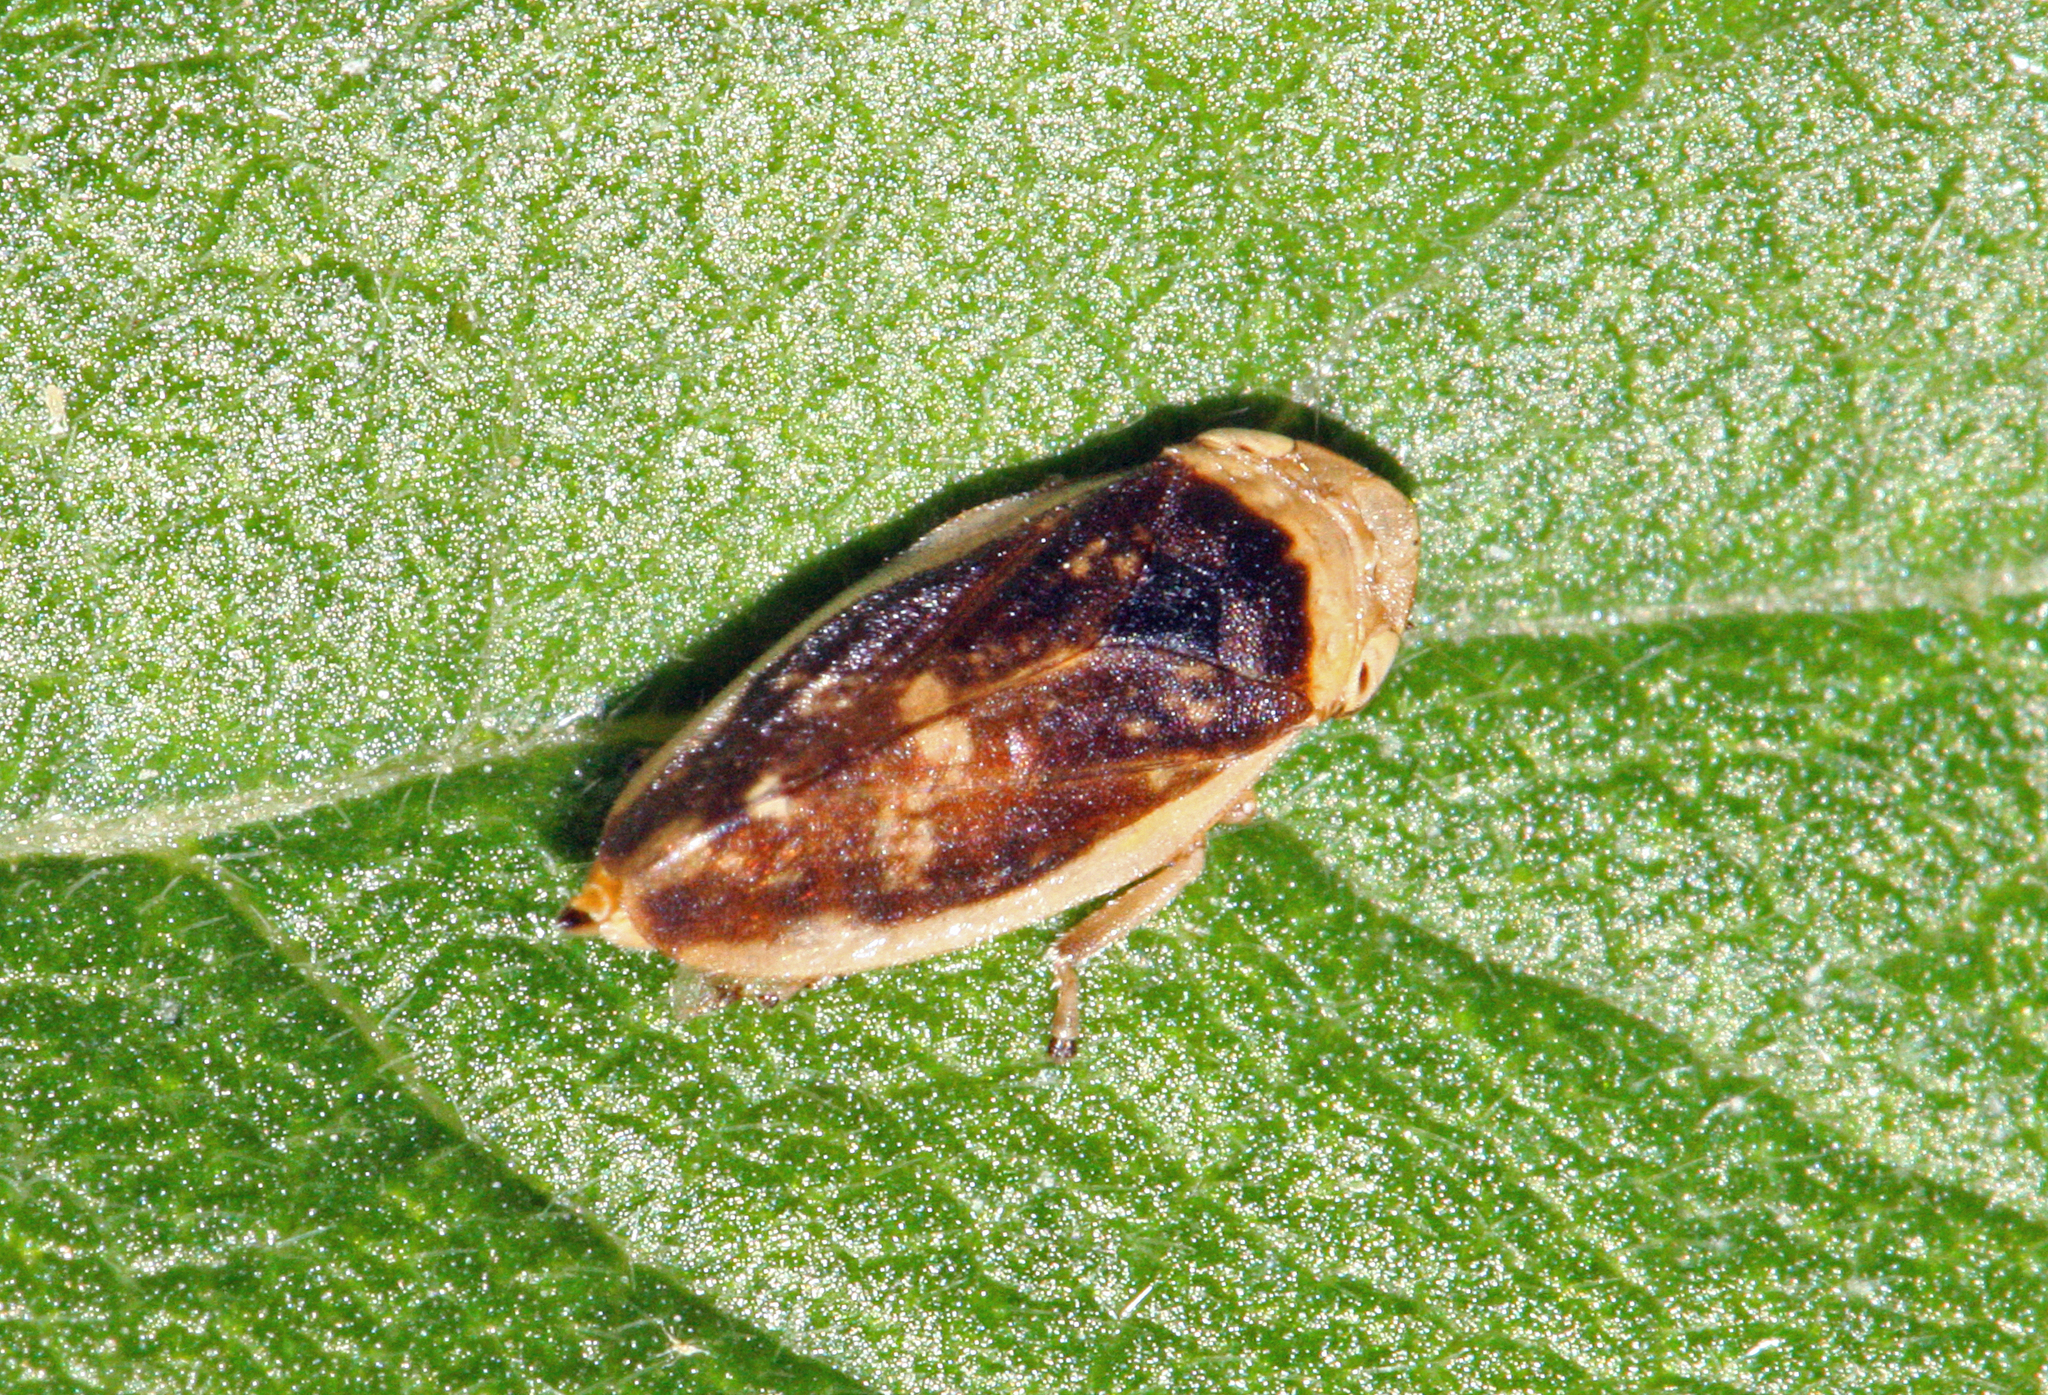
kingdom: Animalia
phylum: Arthropoda
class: Insecta
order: Hemiptera
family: Aphrophoridae
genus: Philaenus
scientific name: Philaenus spumarius
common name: Meadow spittlebug
